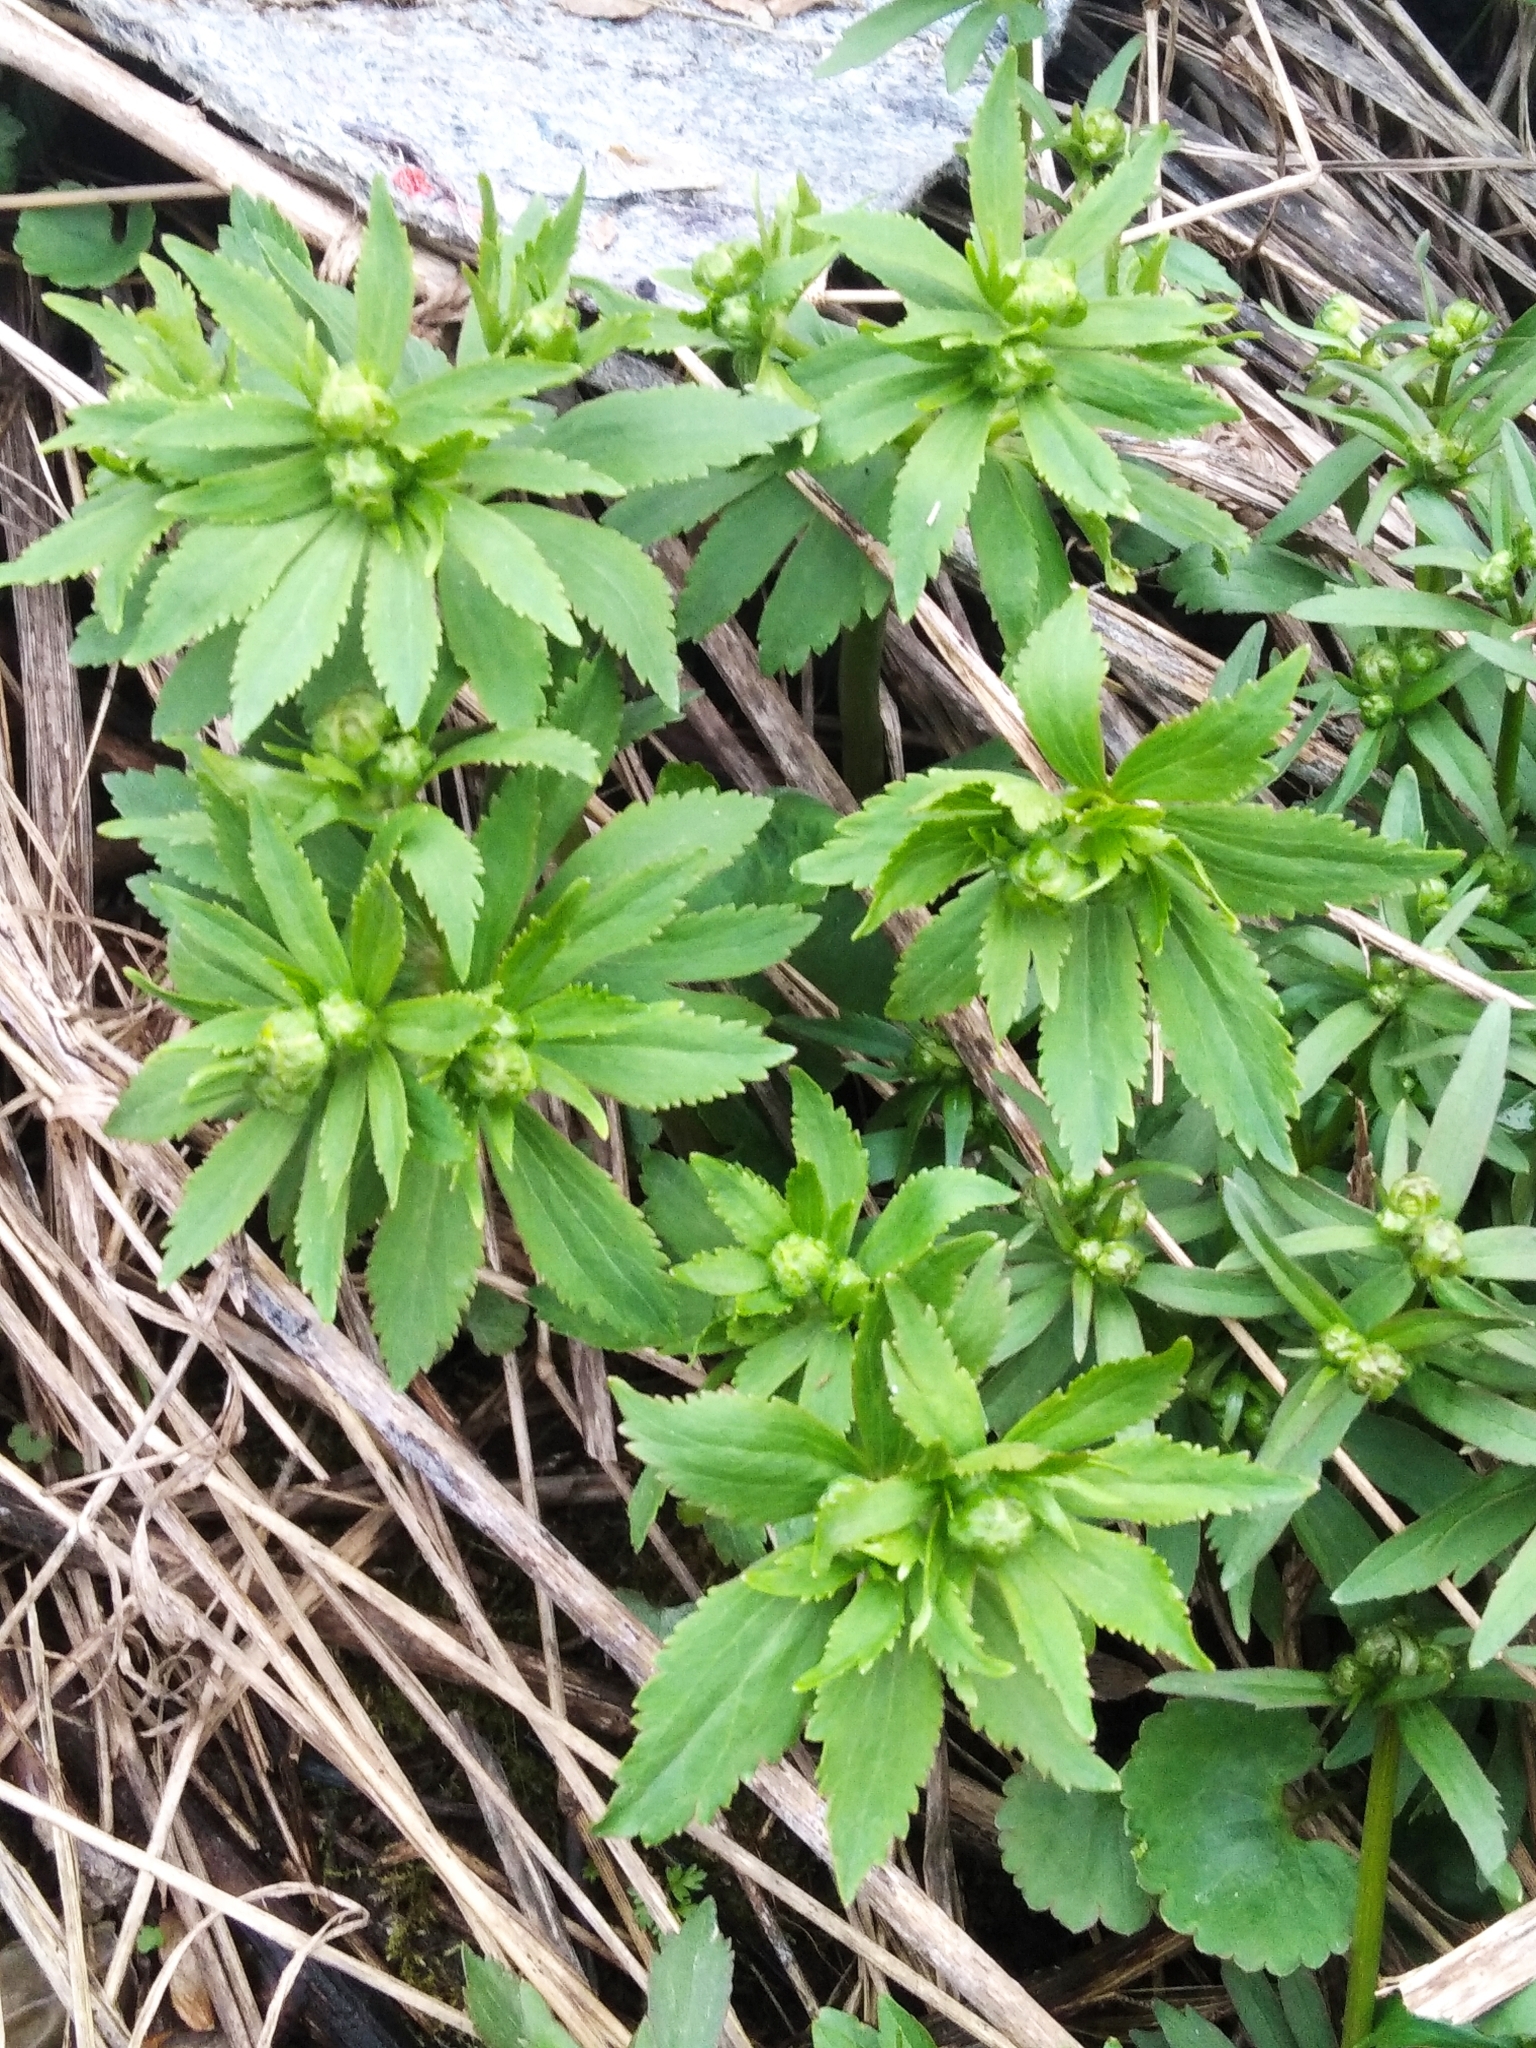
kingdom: Plantae
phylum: Tracheophyta
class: Magnoliopsida
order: Ranunculales
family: Ranunculaceae
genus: Ranunculus
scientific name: Ranunculus cassubicus
